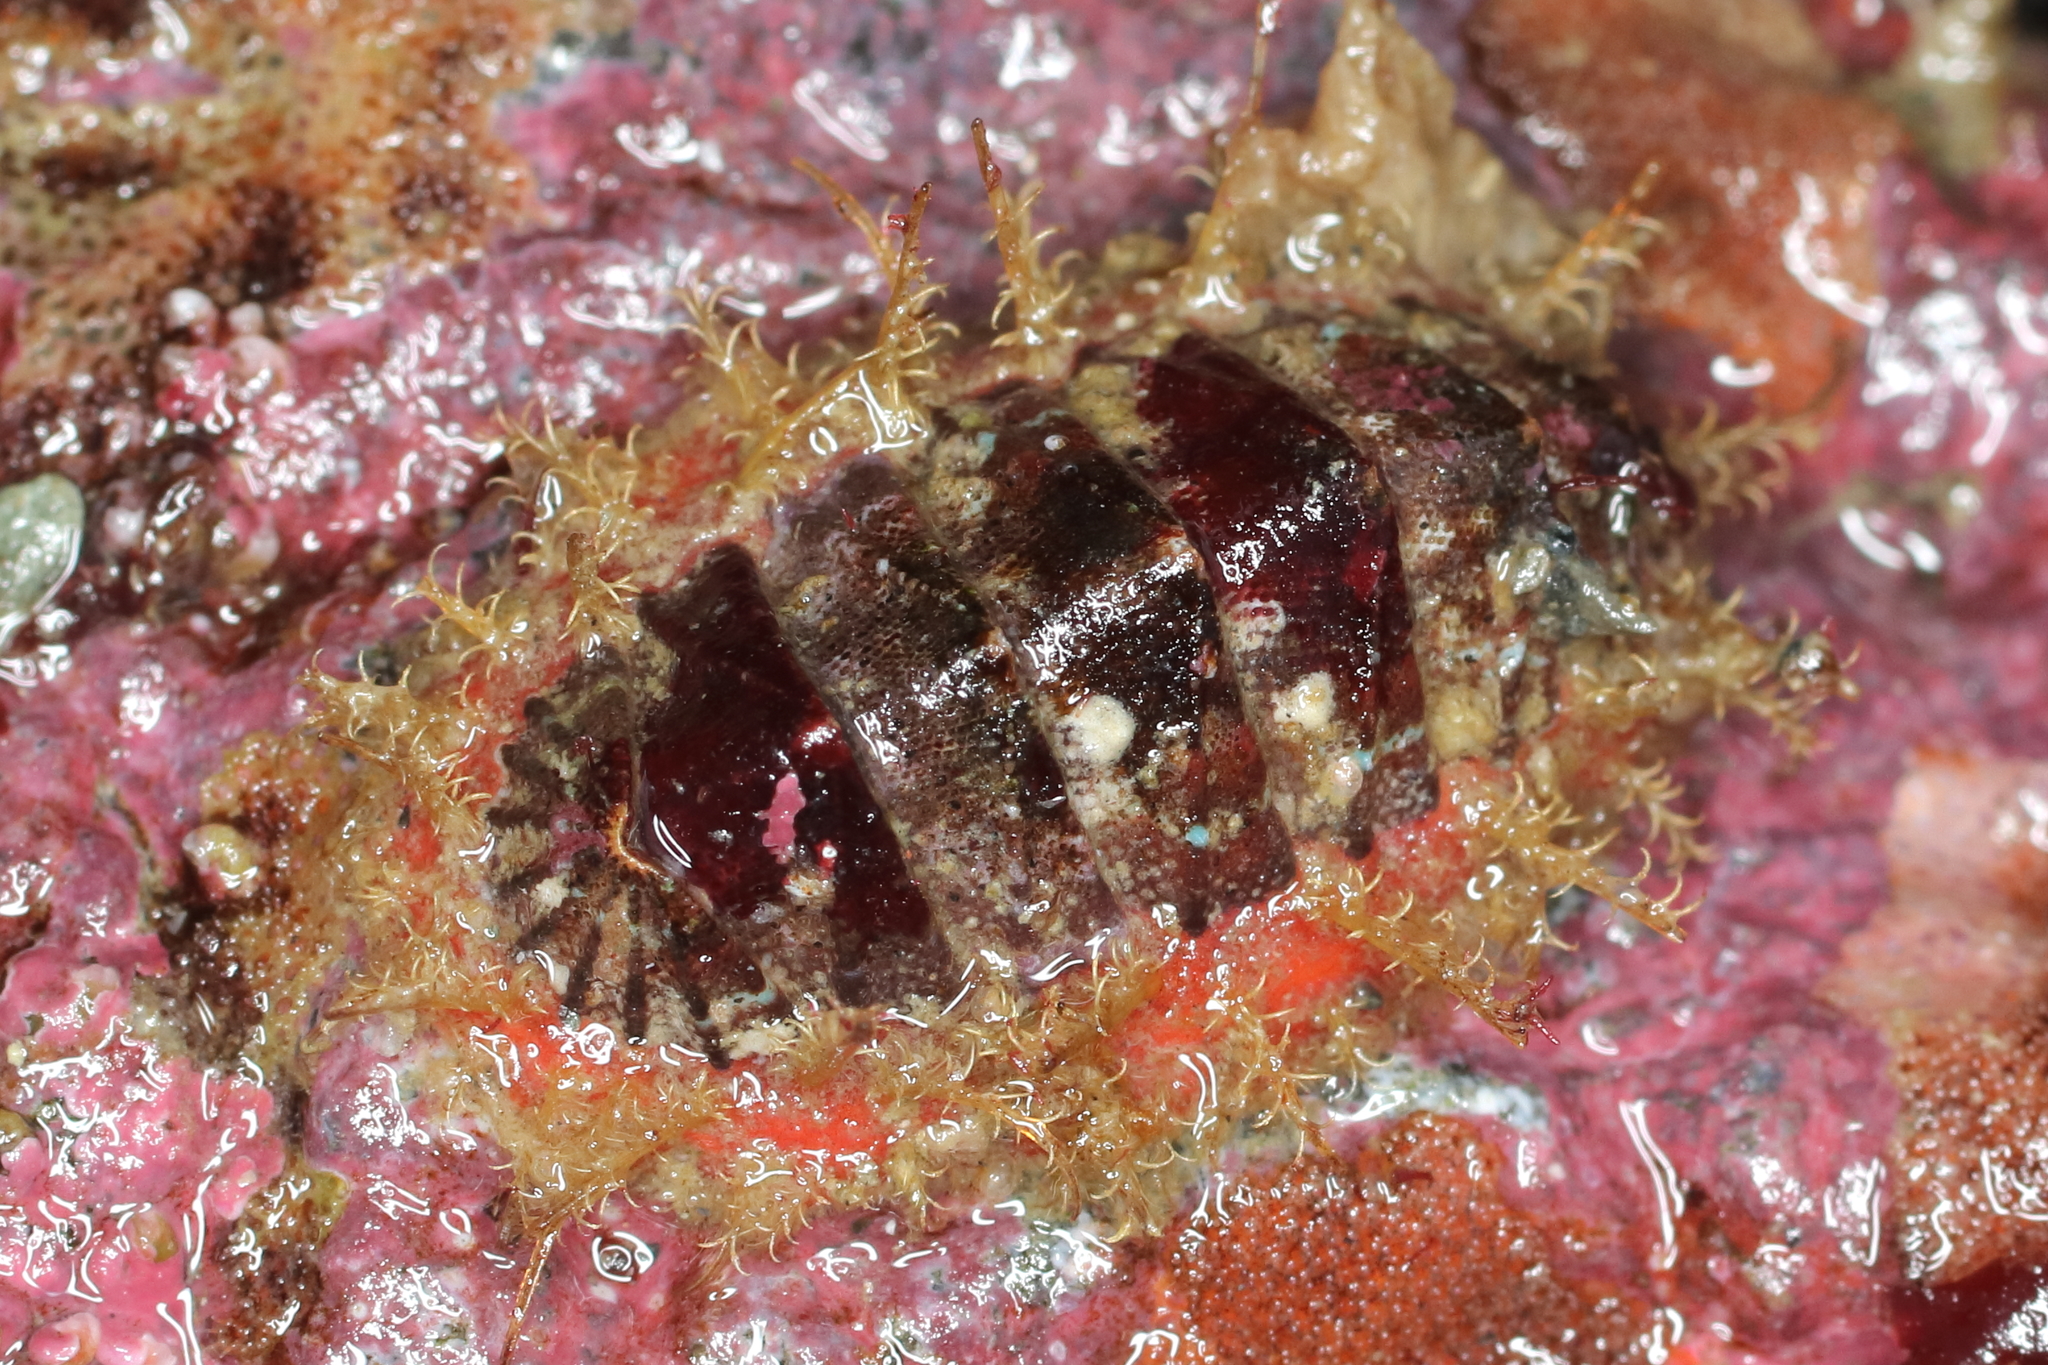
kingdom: Animalia
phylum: Mollusca
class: Polyplacophora
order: Chitonida
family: Mopaliidae
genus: Mopalia
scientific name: Mopalia sinuata
